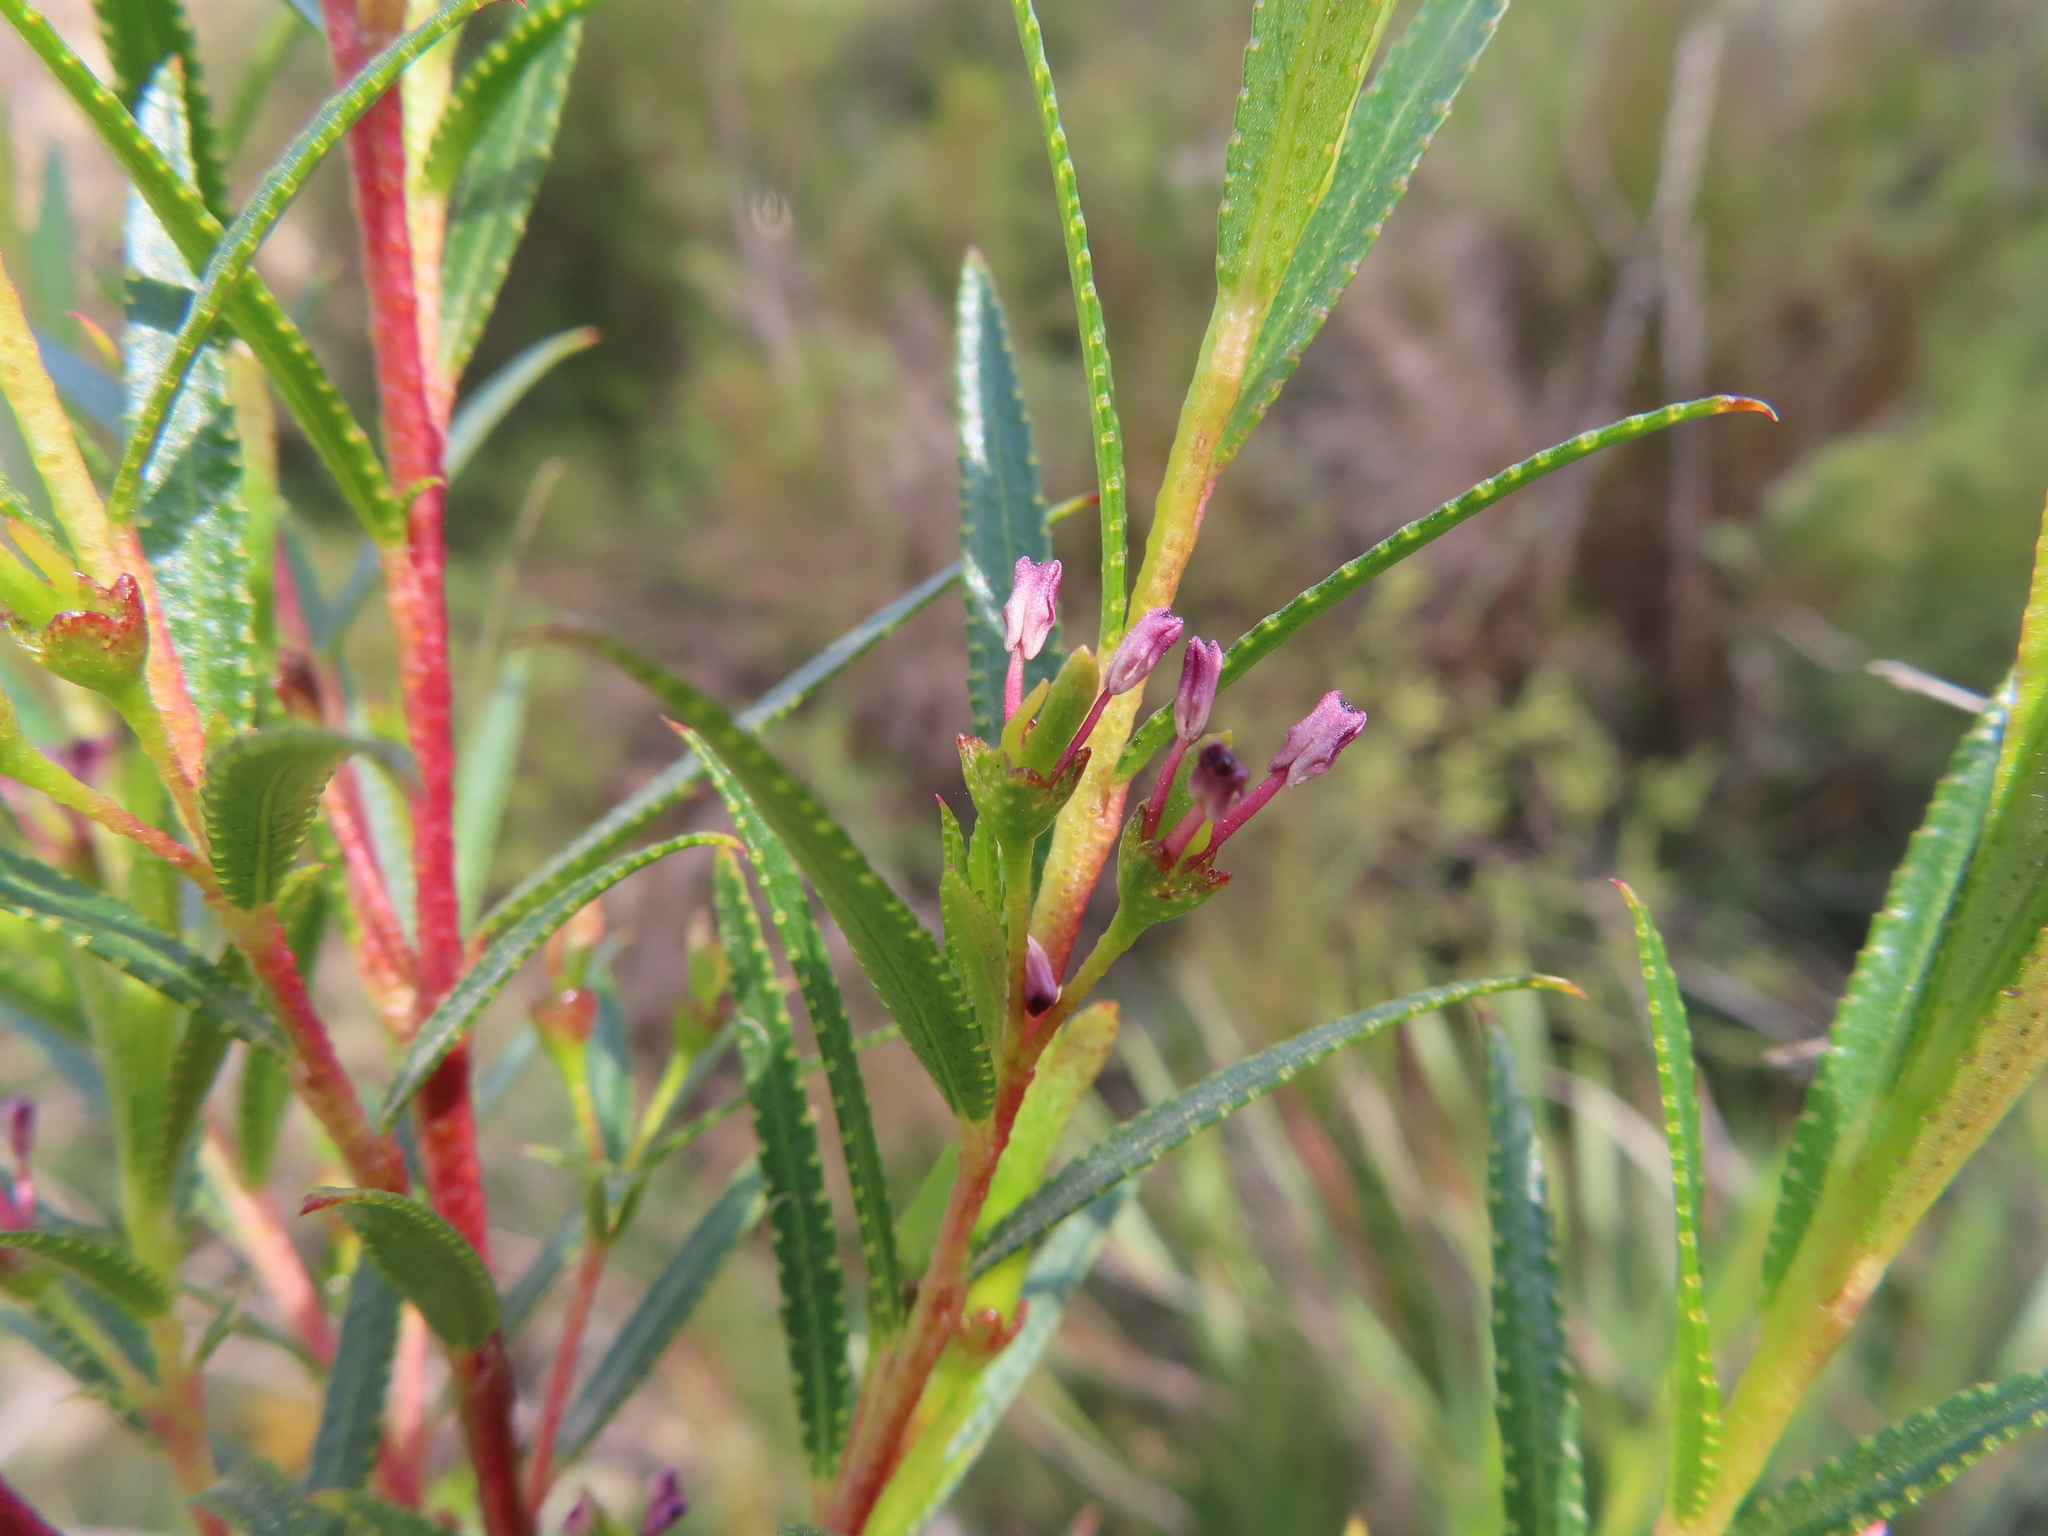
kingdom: Plantae
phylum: Tracheophyta
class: Magnoliopsida
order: Sapindales
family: Rutaceae
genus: Empleurum
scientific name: Empleurum unicapsulare
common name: False buchu
